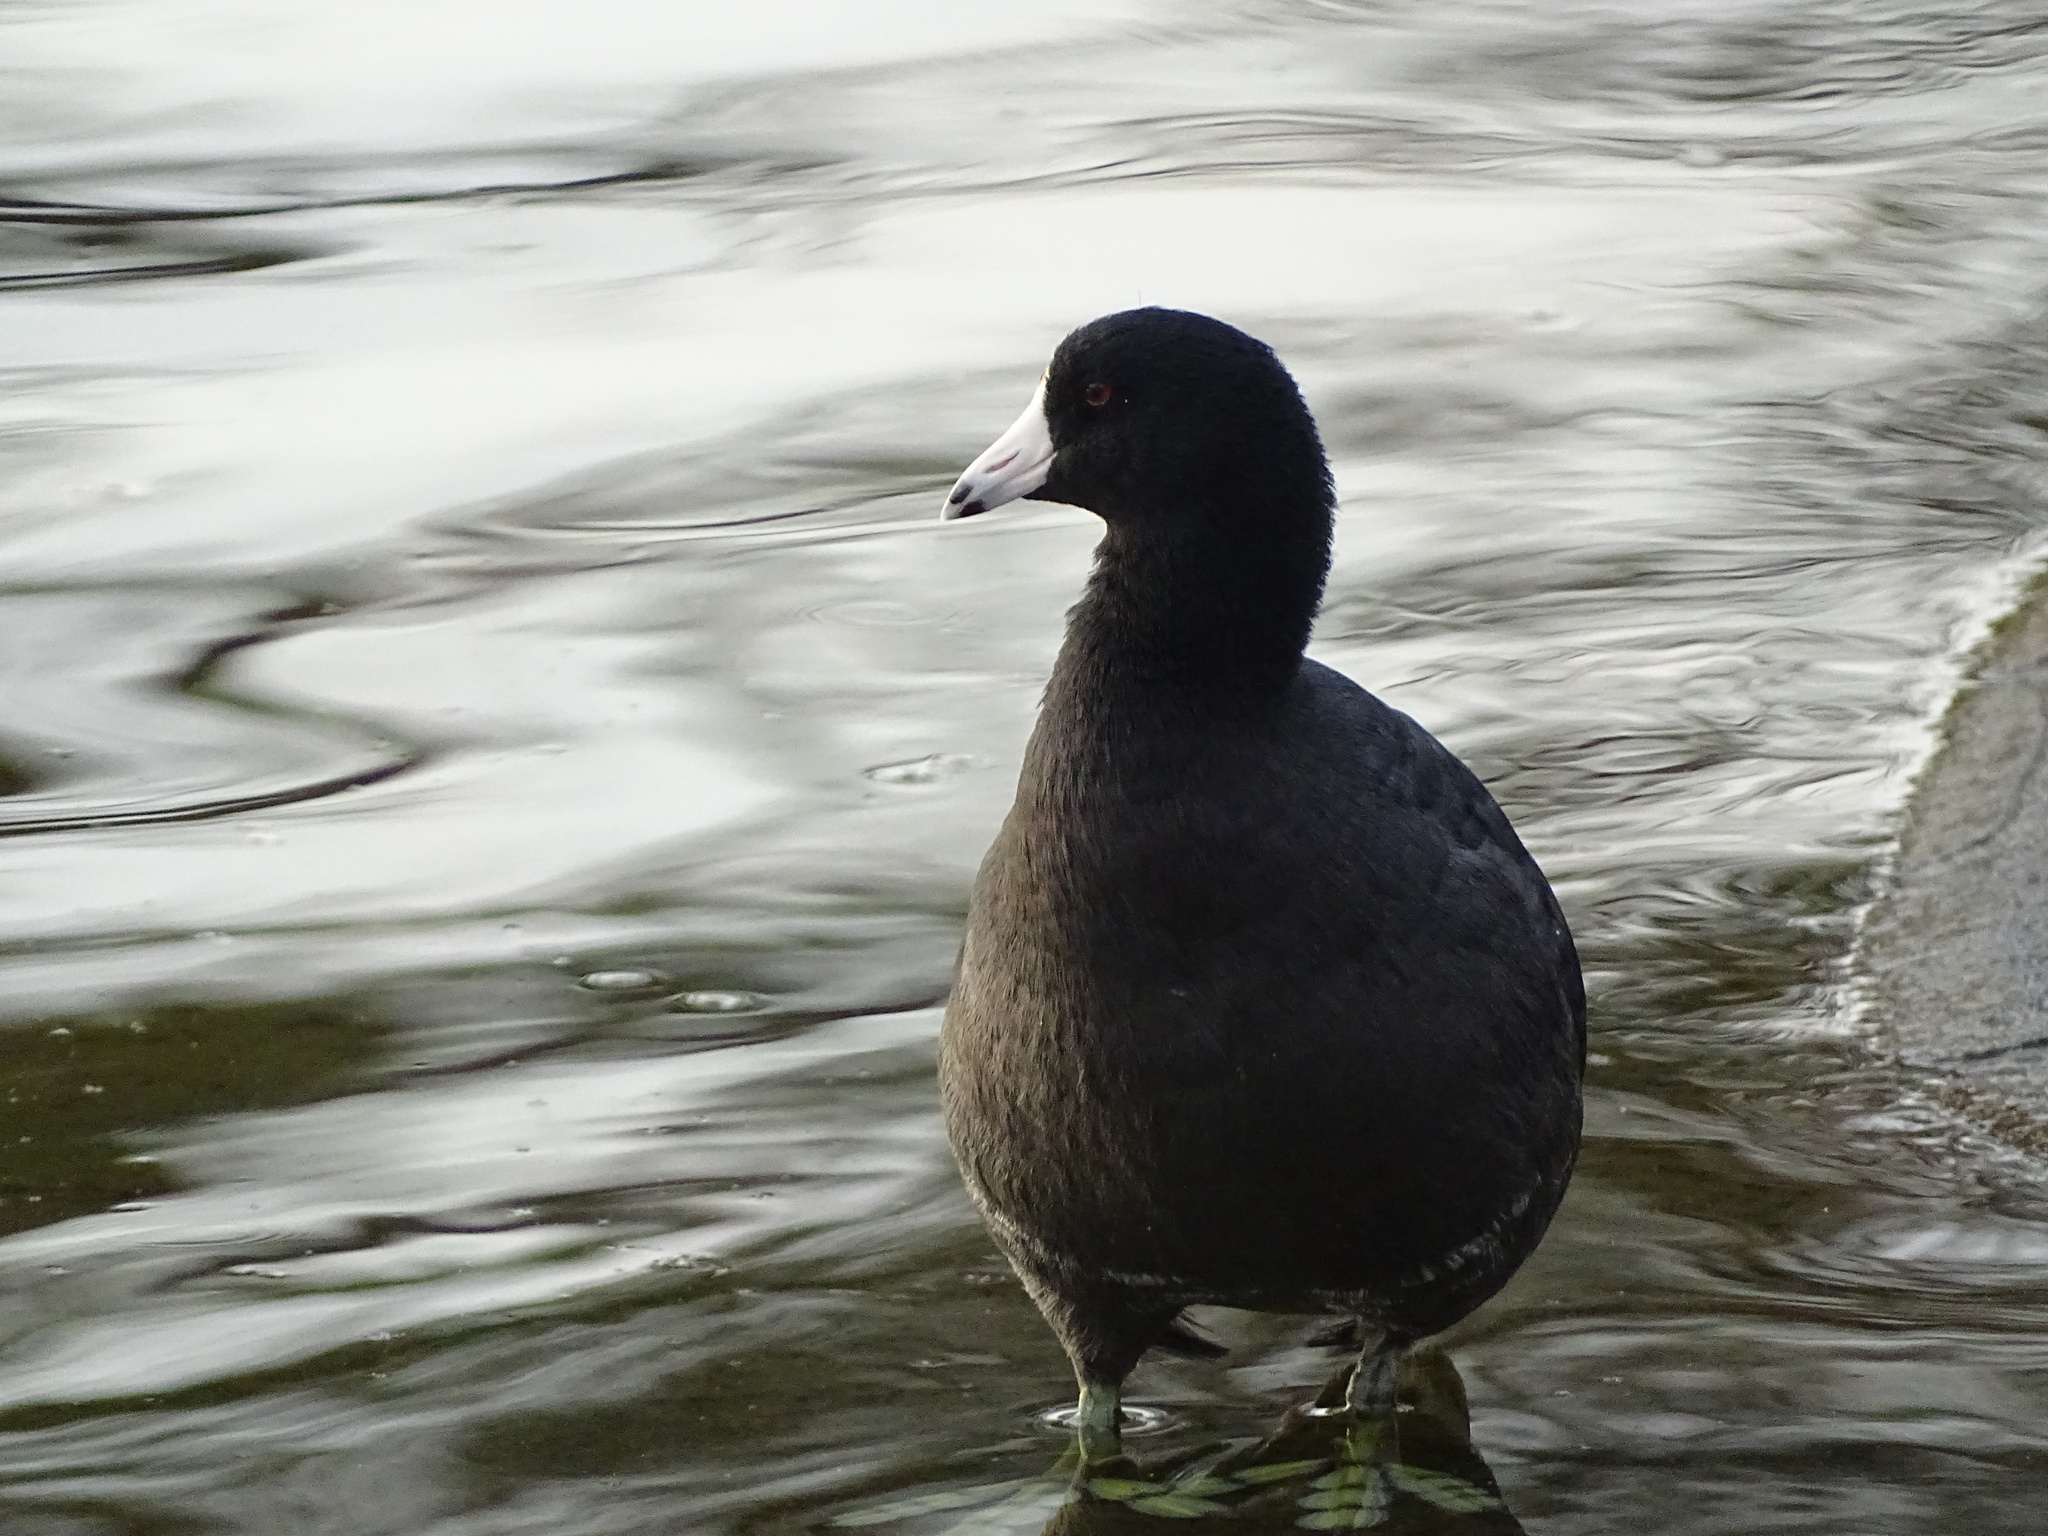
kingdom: Animalia
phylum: Chordata
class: Aves
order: Gruiformes
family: Rallidae
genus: Fulica
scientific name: Fulica americana
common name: American coot
